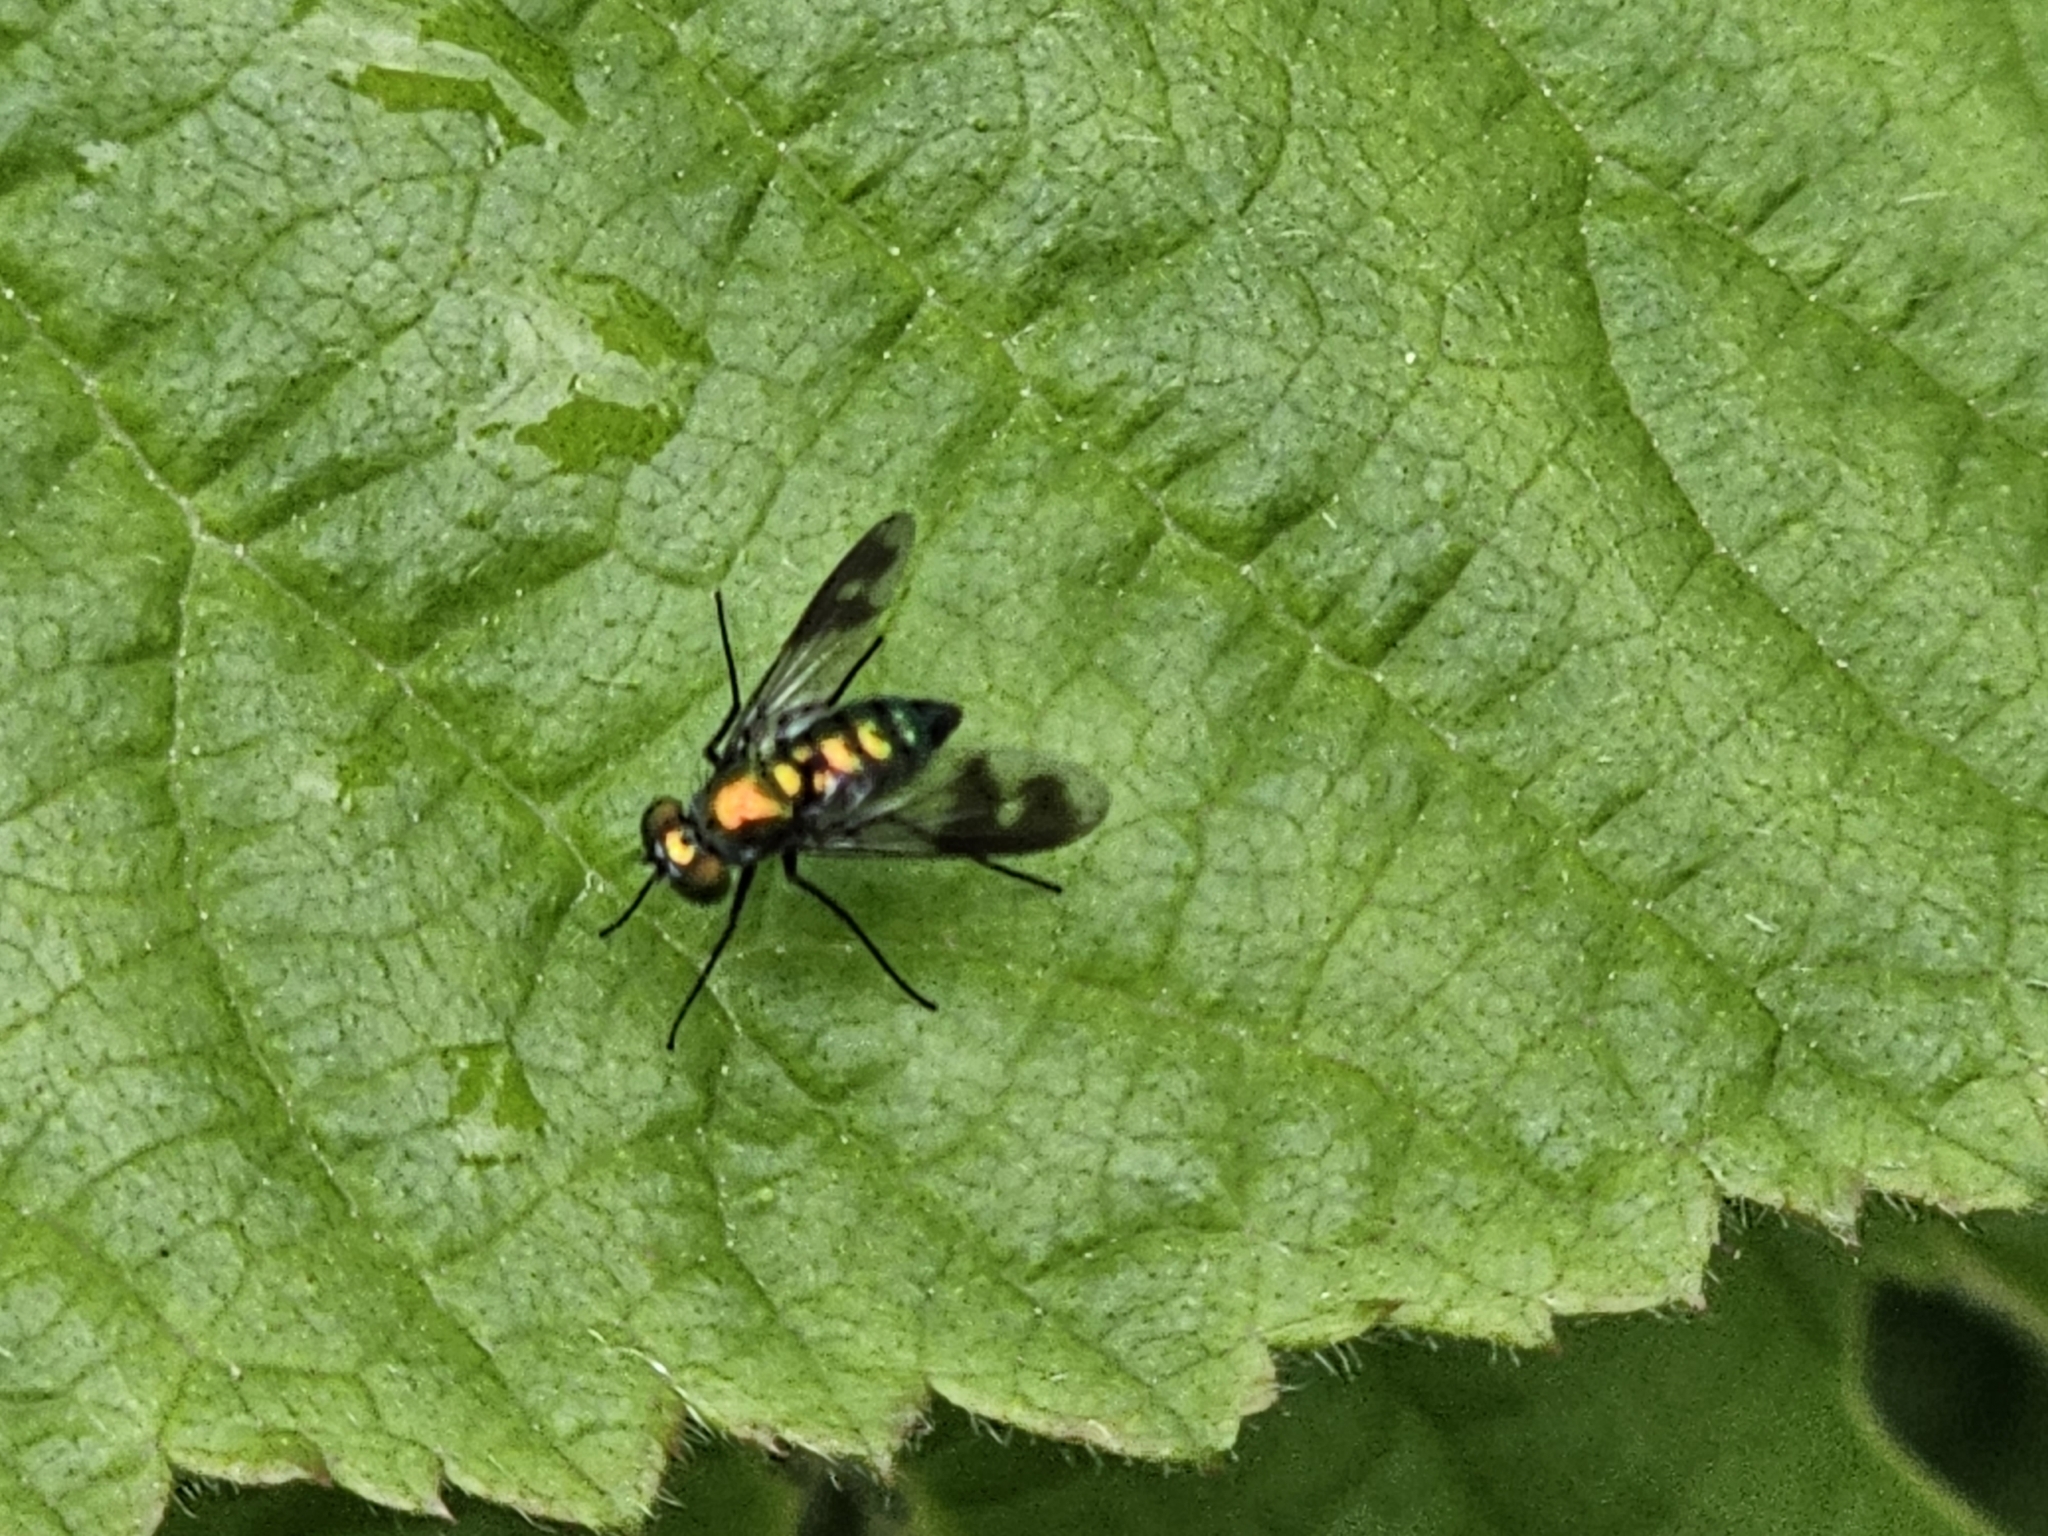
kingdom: Animalia
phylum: Arthropoda
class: Insecta
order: Diptera
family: Dolichopodidae
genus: Condylostylus
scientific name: Condylostylus patibulatus
